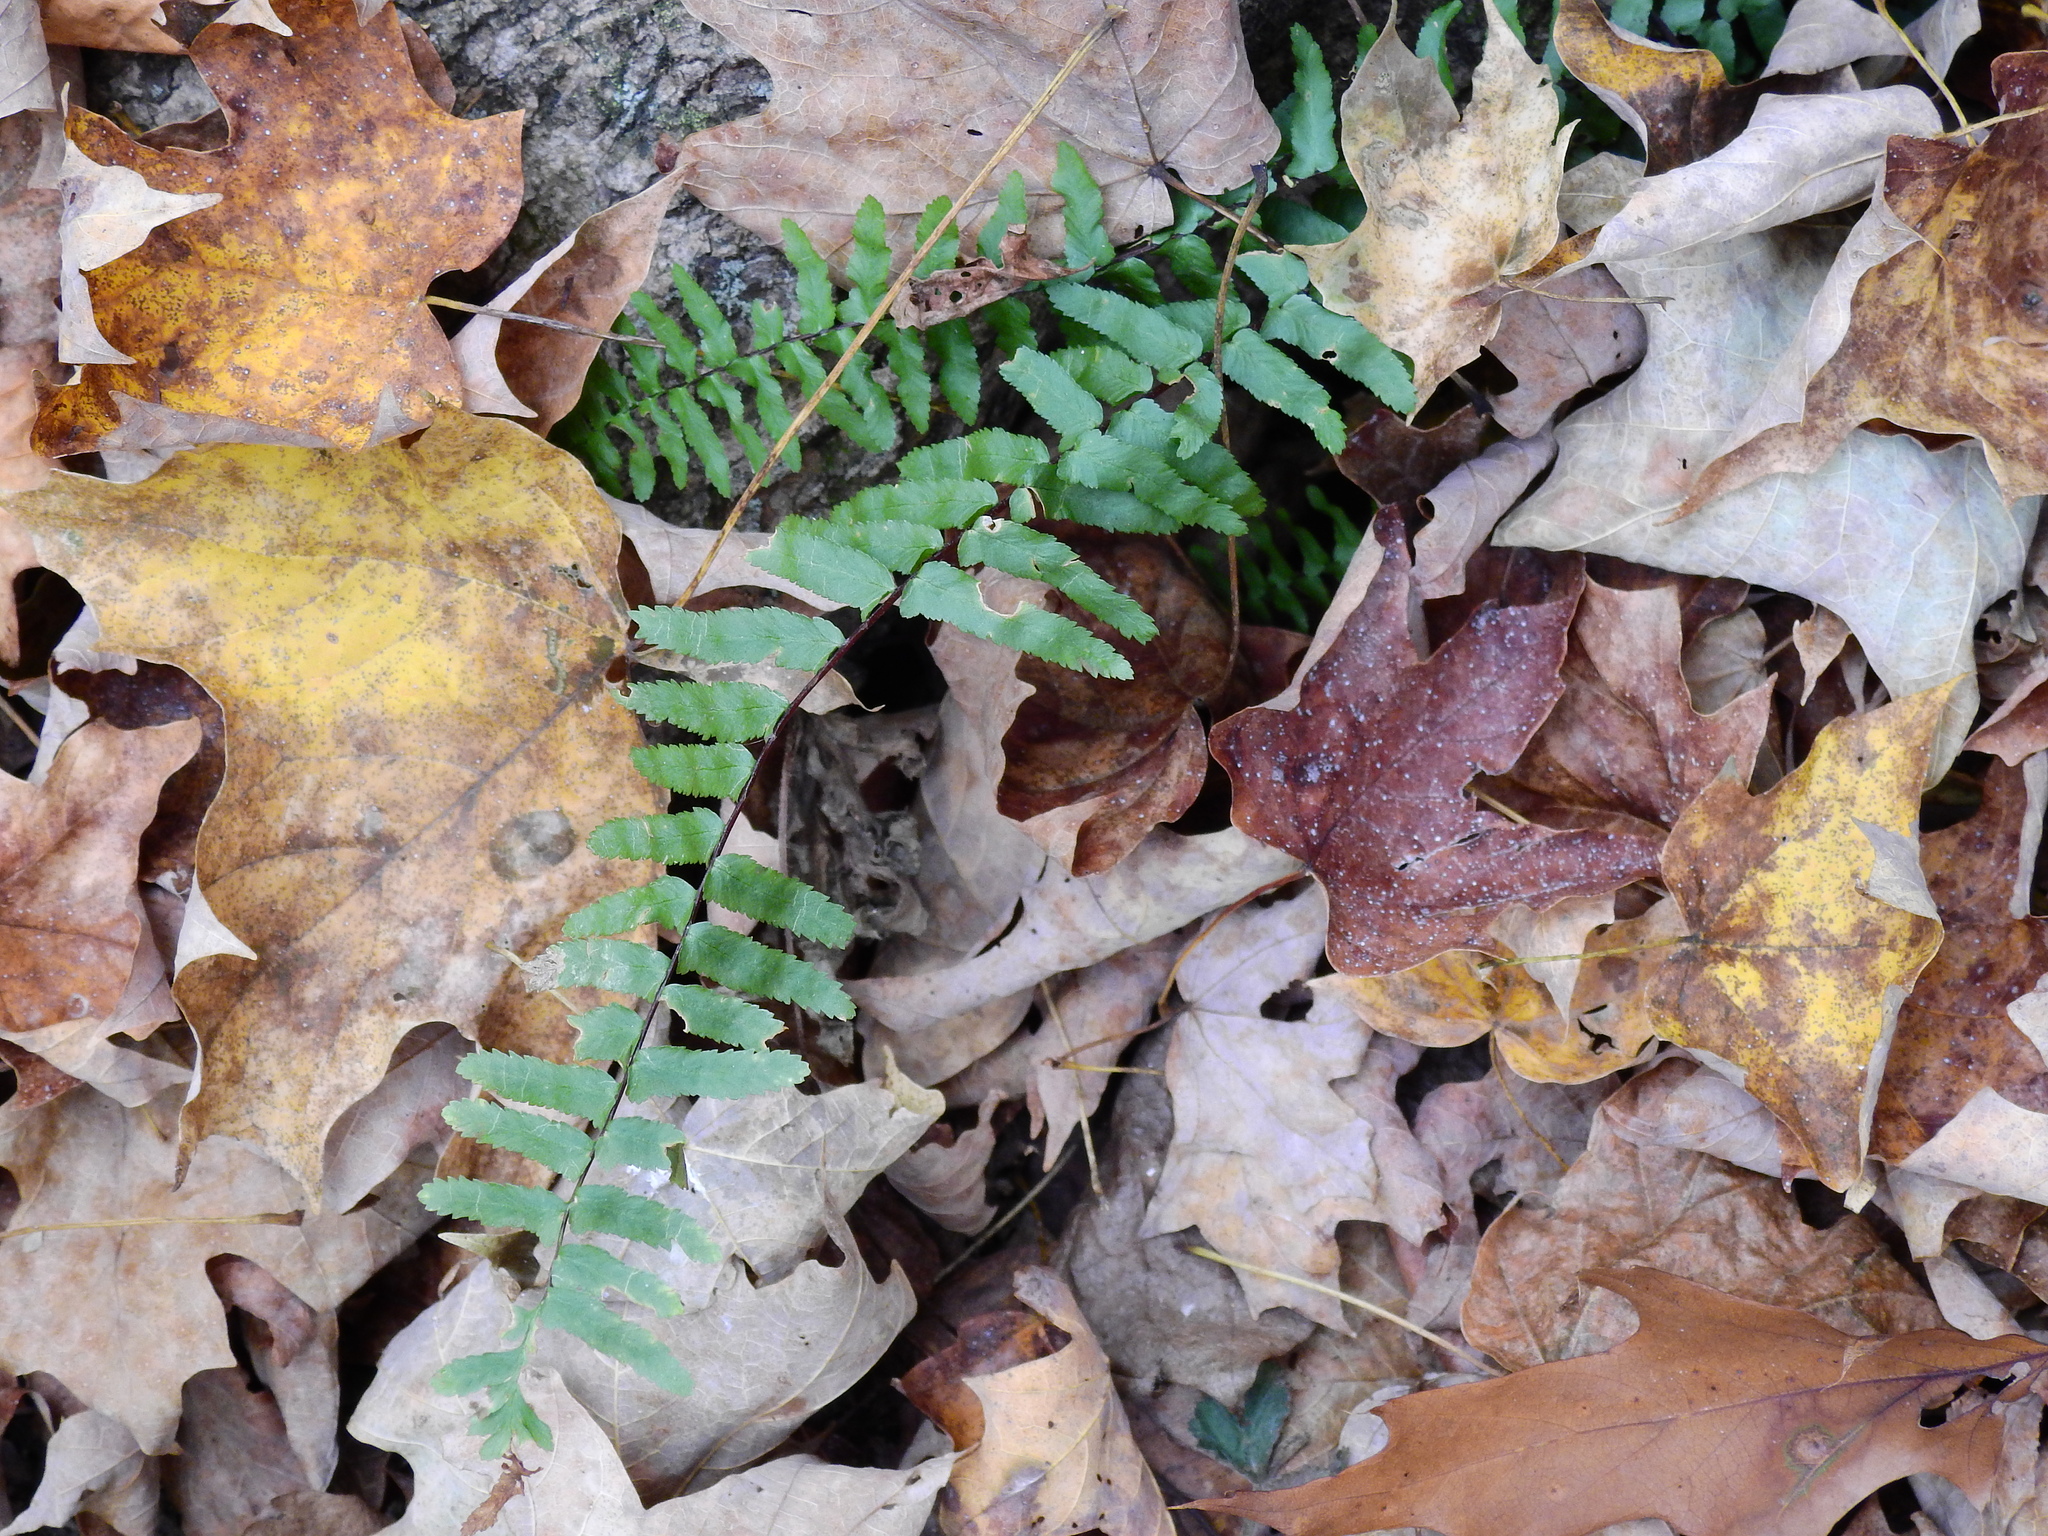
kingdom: Plantae
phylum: Tracheophyta
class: Polypodiopsida
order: Polypodiales
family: Aspleniaceae
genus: Asplenium
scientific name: Asplenium platyneuron
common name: Ebony spleenwort
